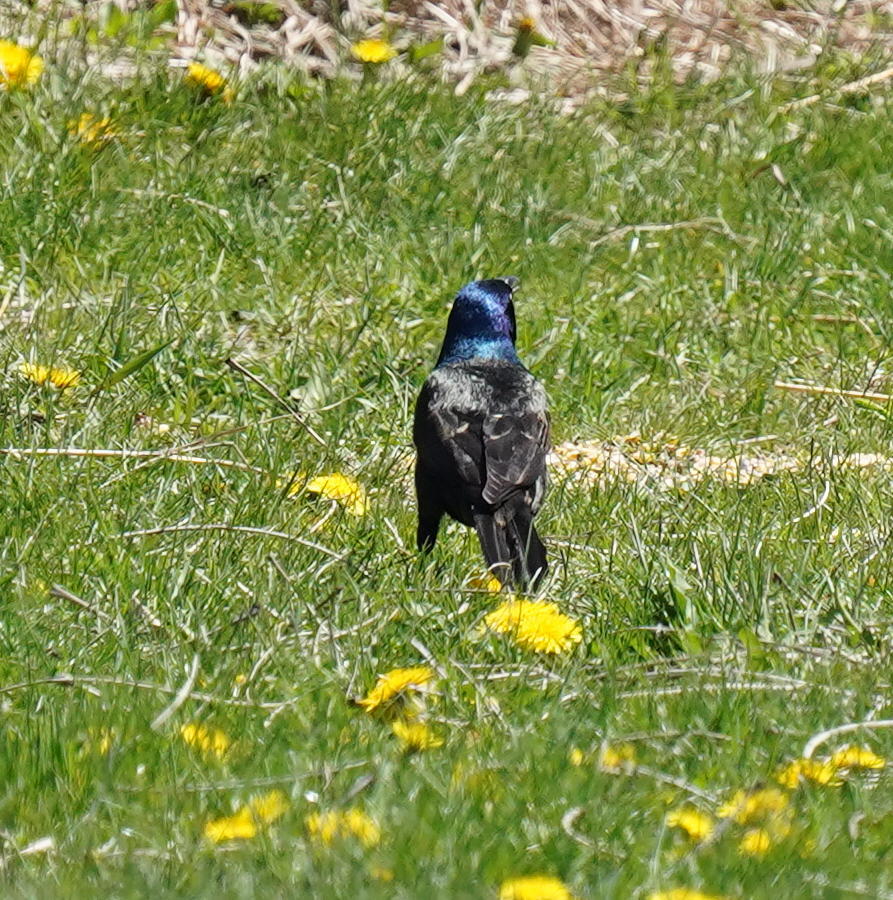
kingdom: Animalia
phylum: Chordata
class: Aves
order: Passeriformes
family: Icteridae
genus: Quiscalus
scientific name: Quiscalus quiscula
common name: Common grackle
